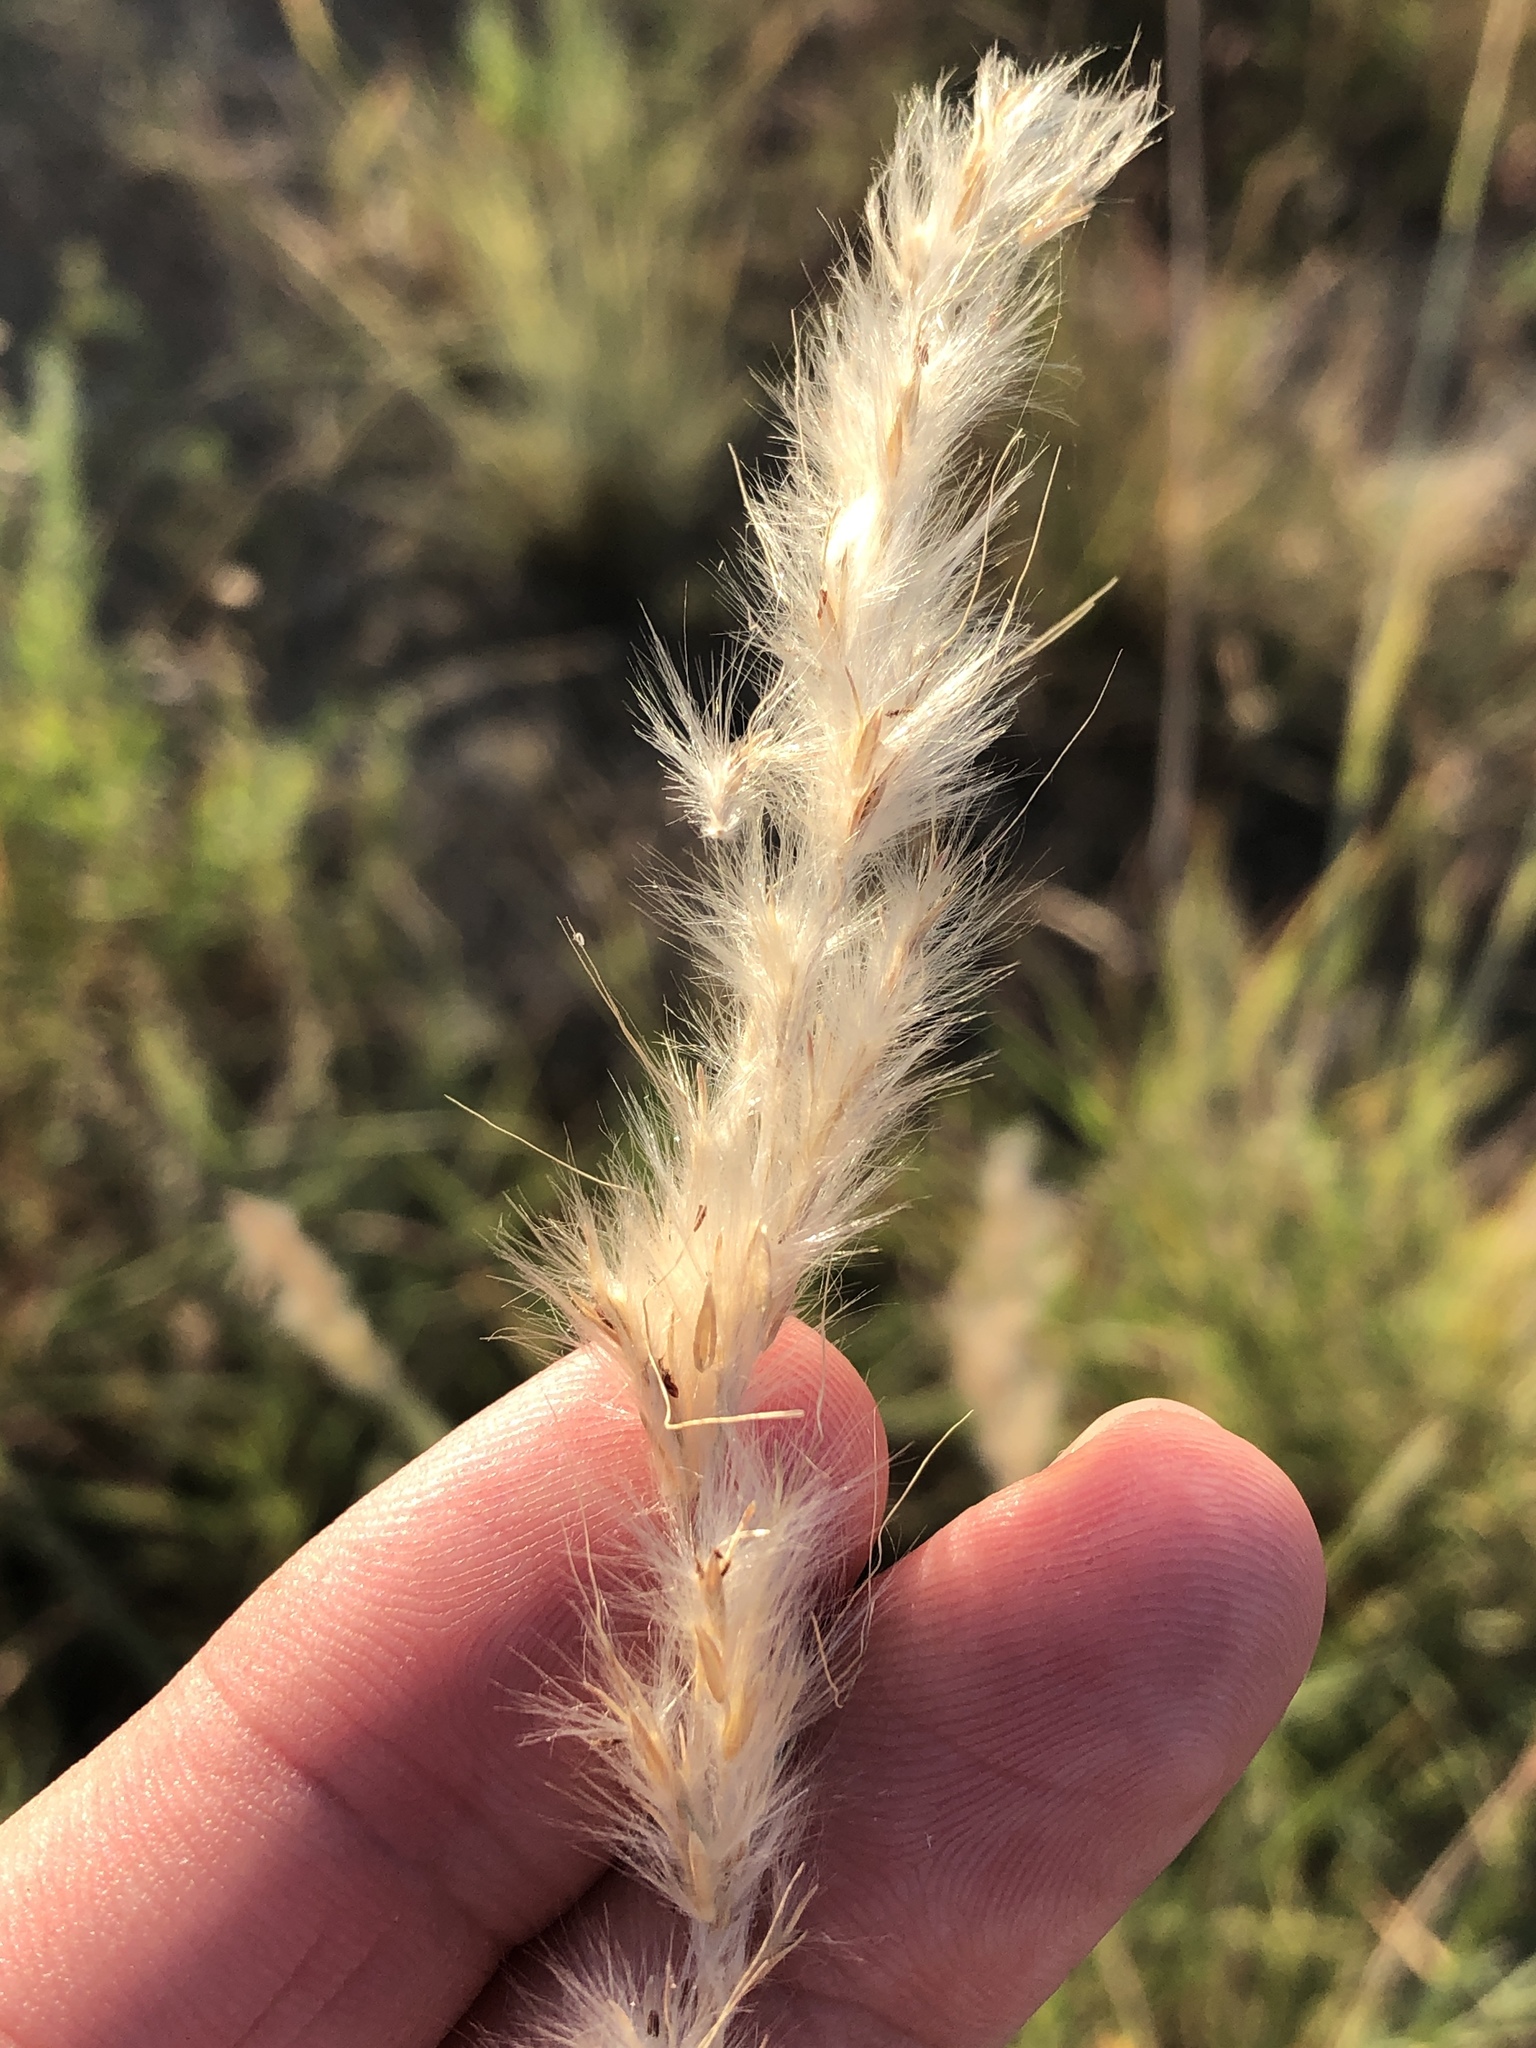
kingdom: Plantae
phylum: Tracheophyta
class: Liliopsida
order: Poales
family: Poaceae
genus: Bothriochloa
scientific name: Bothriochloa torreyana
